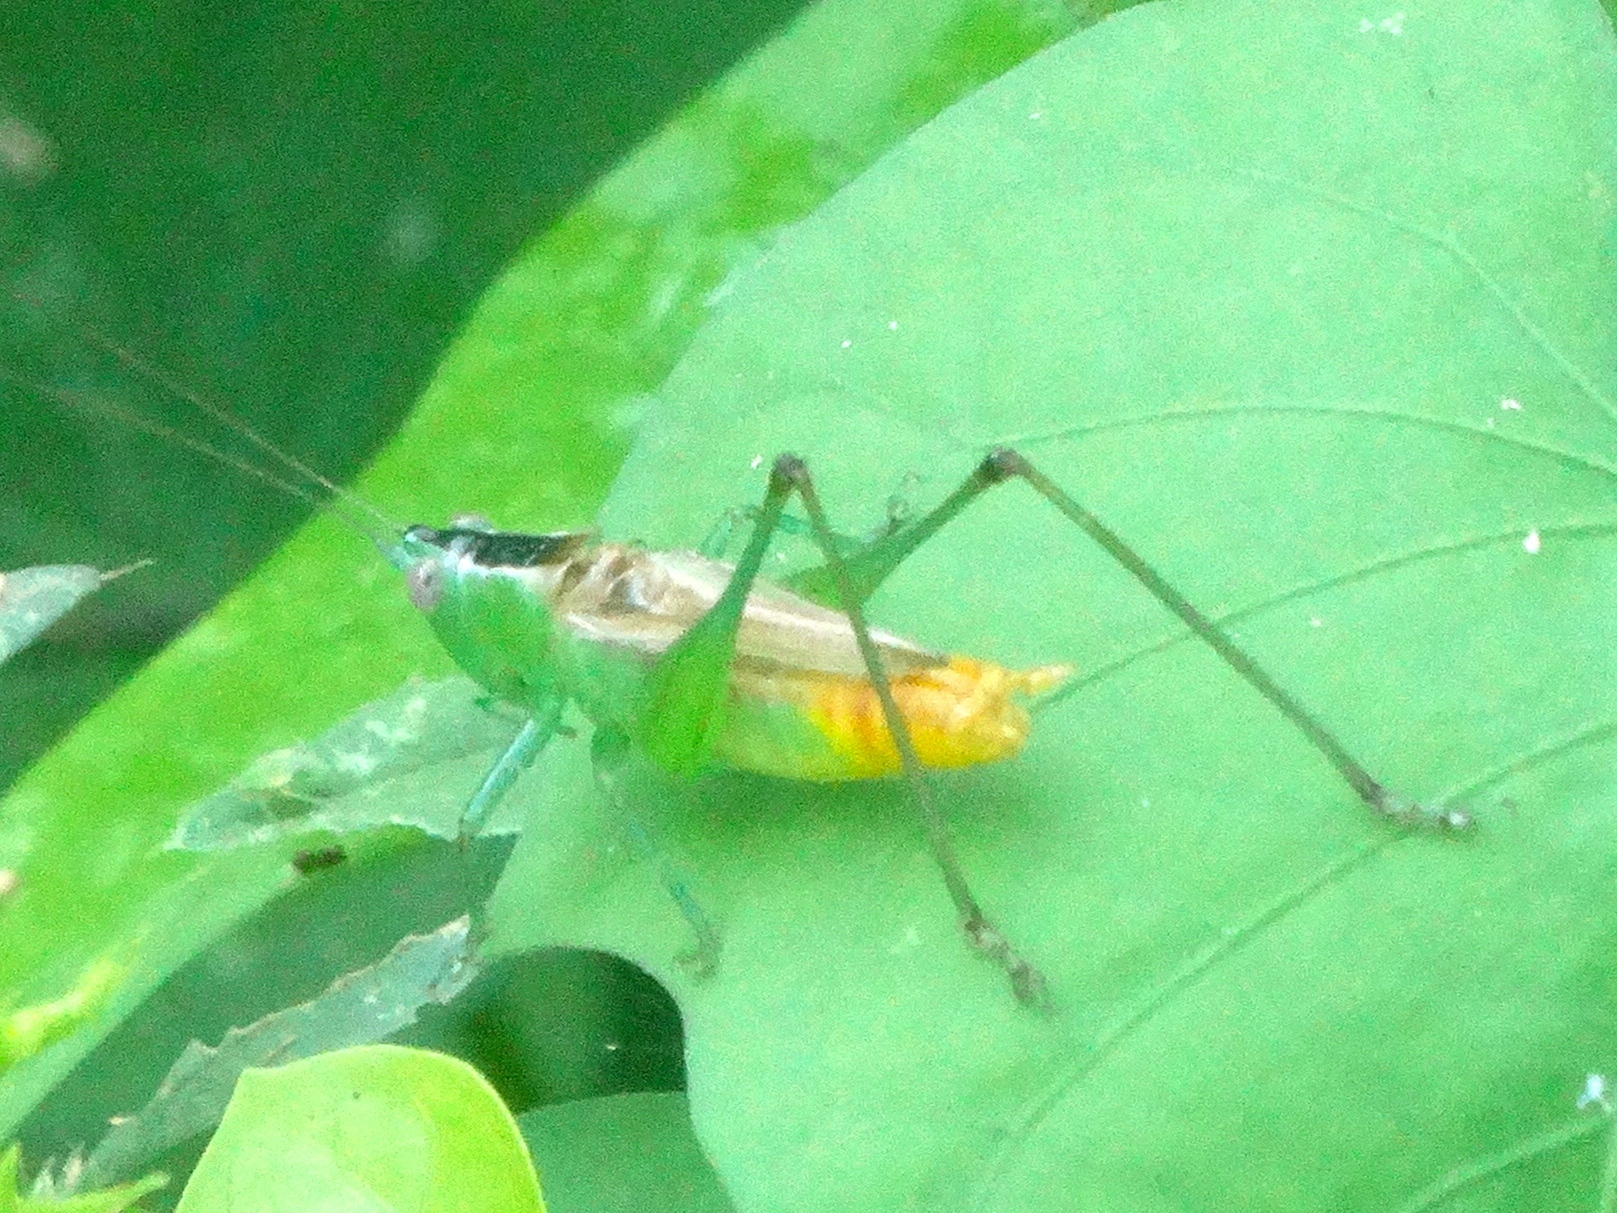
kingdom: Animalia
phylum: Arthropoda
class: Insecta
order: Orthoptera
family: Tettigoniidae
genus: Conocephalus
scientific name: Conocephalus
